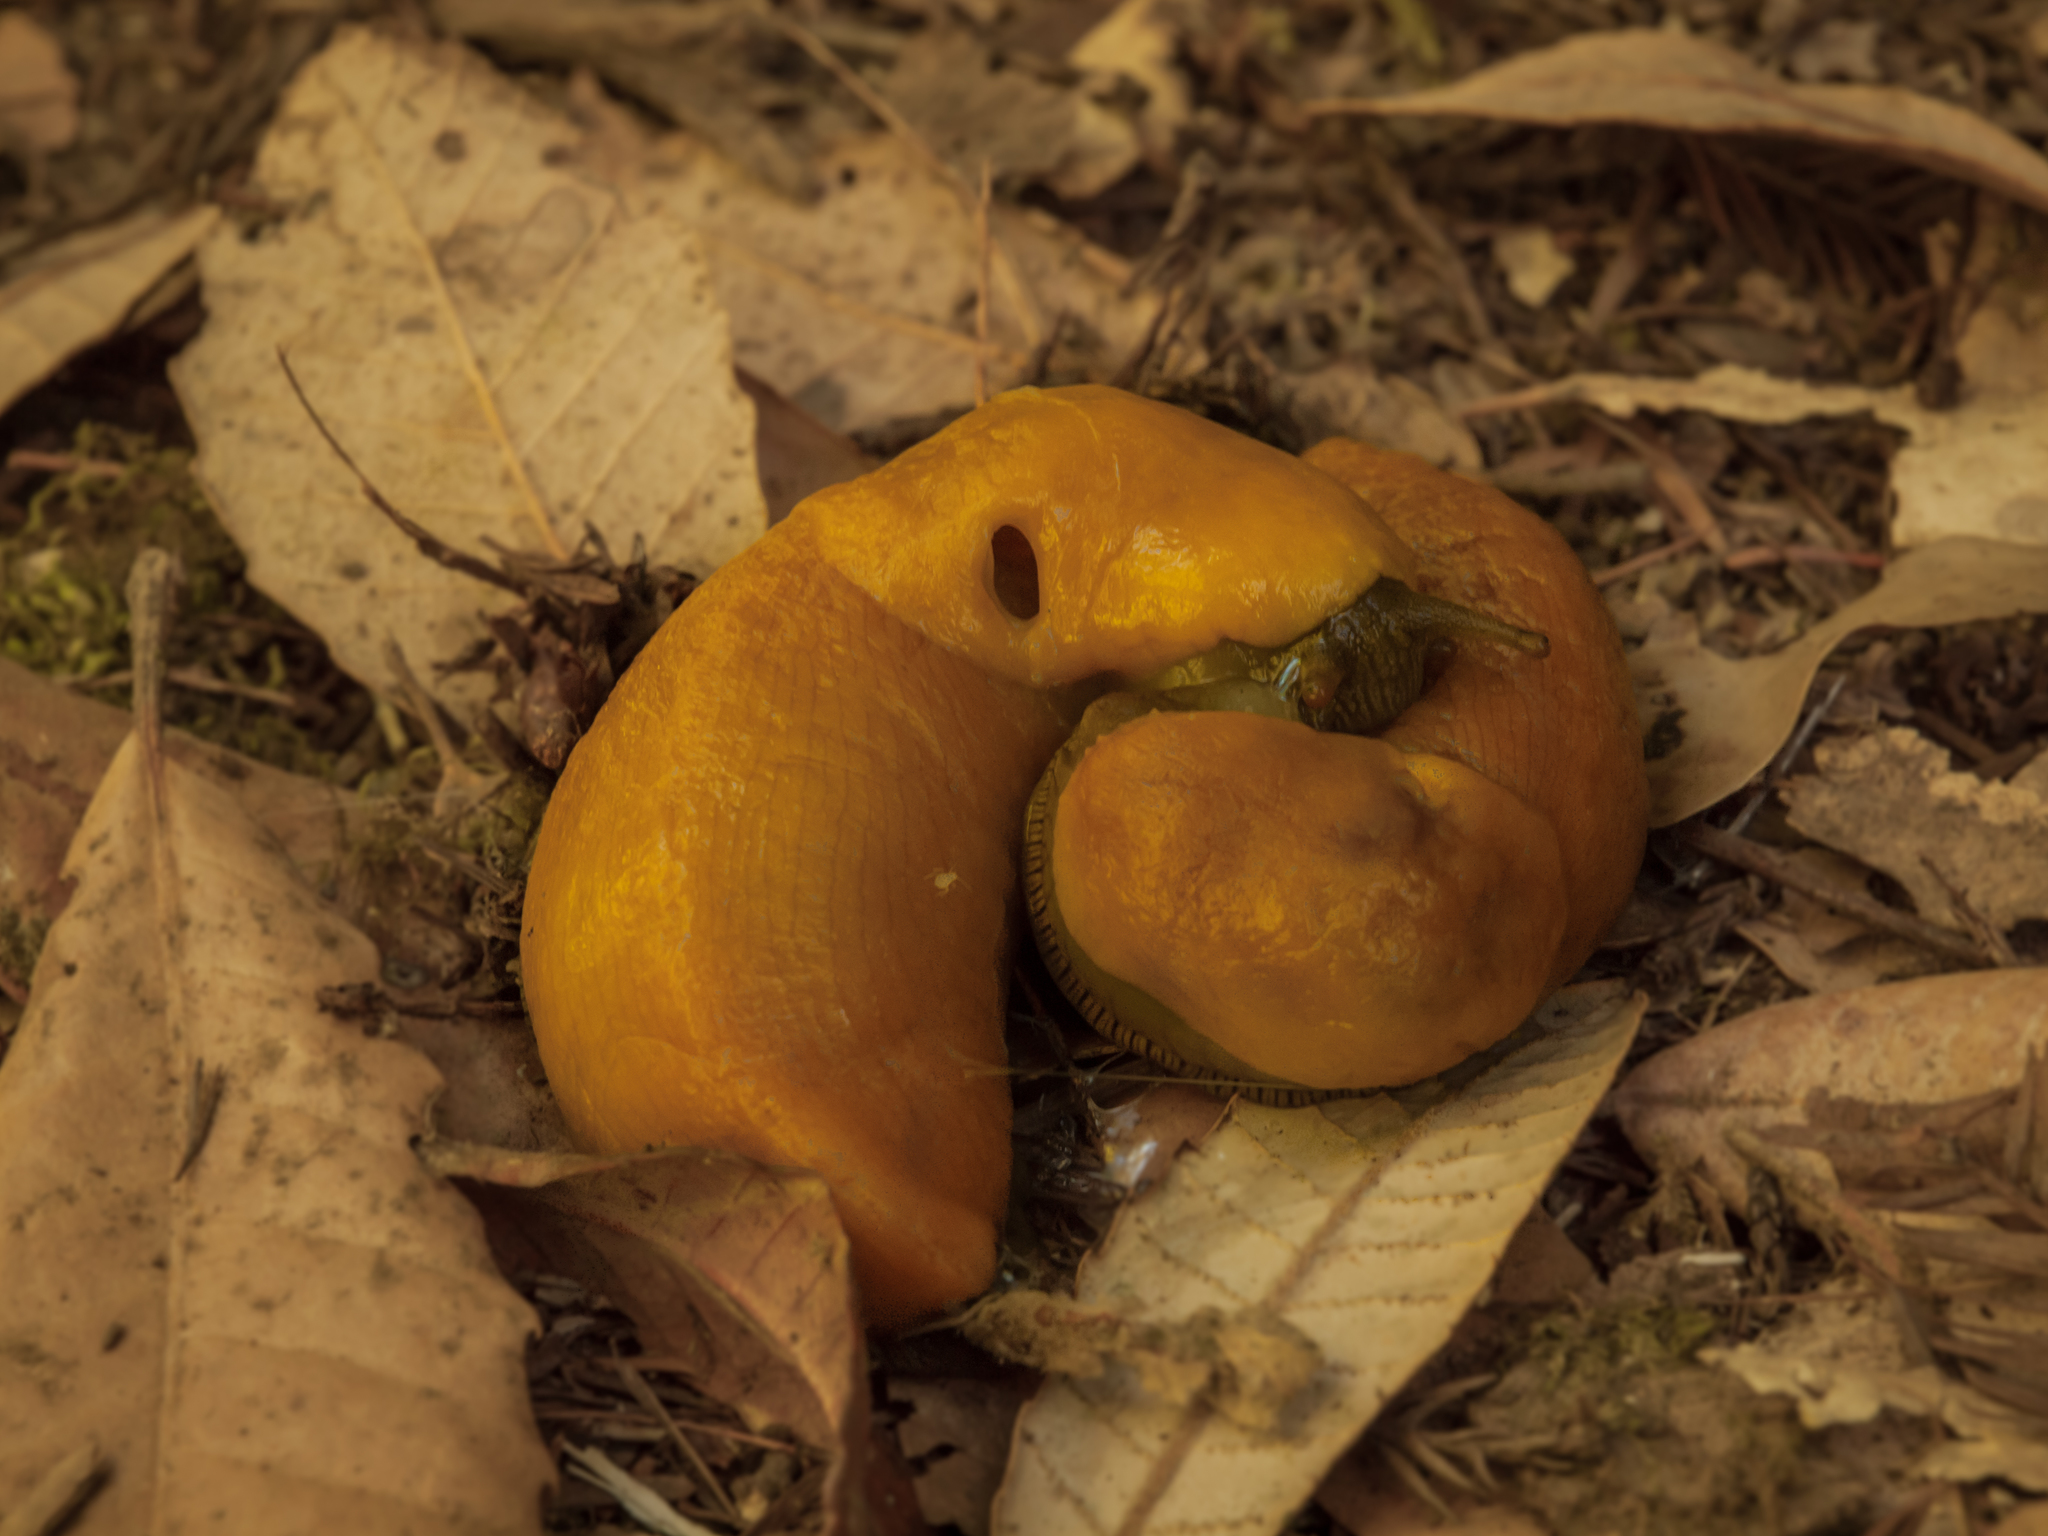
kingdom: Animalia
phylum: Mollusca
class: Gastropoda
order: Stylommatophora
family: Ariolimacidae
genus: Ariolimax
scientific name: Ariolimax californicus
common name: California banana slug
